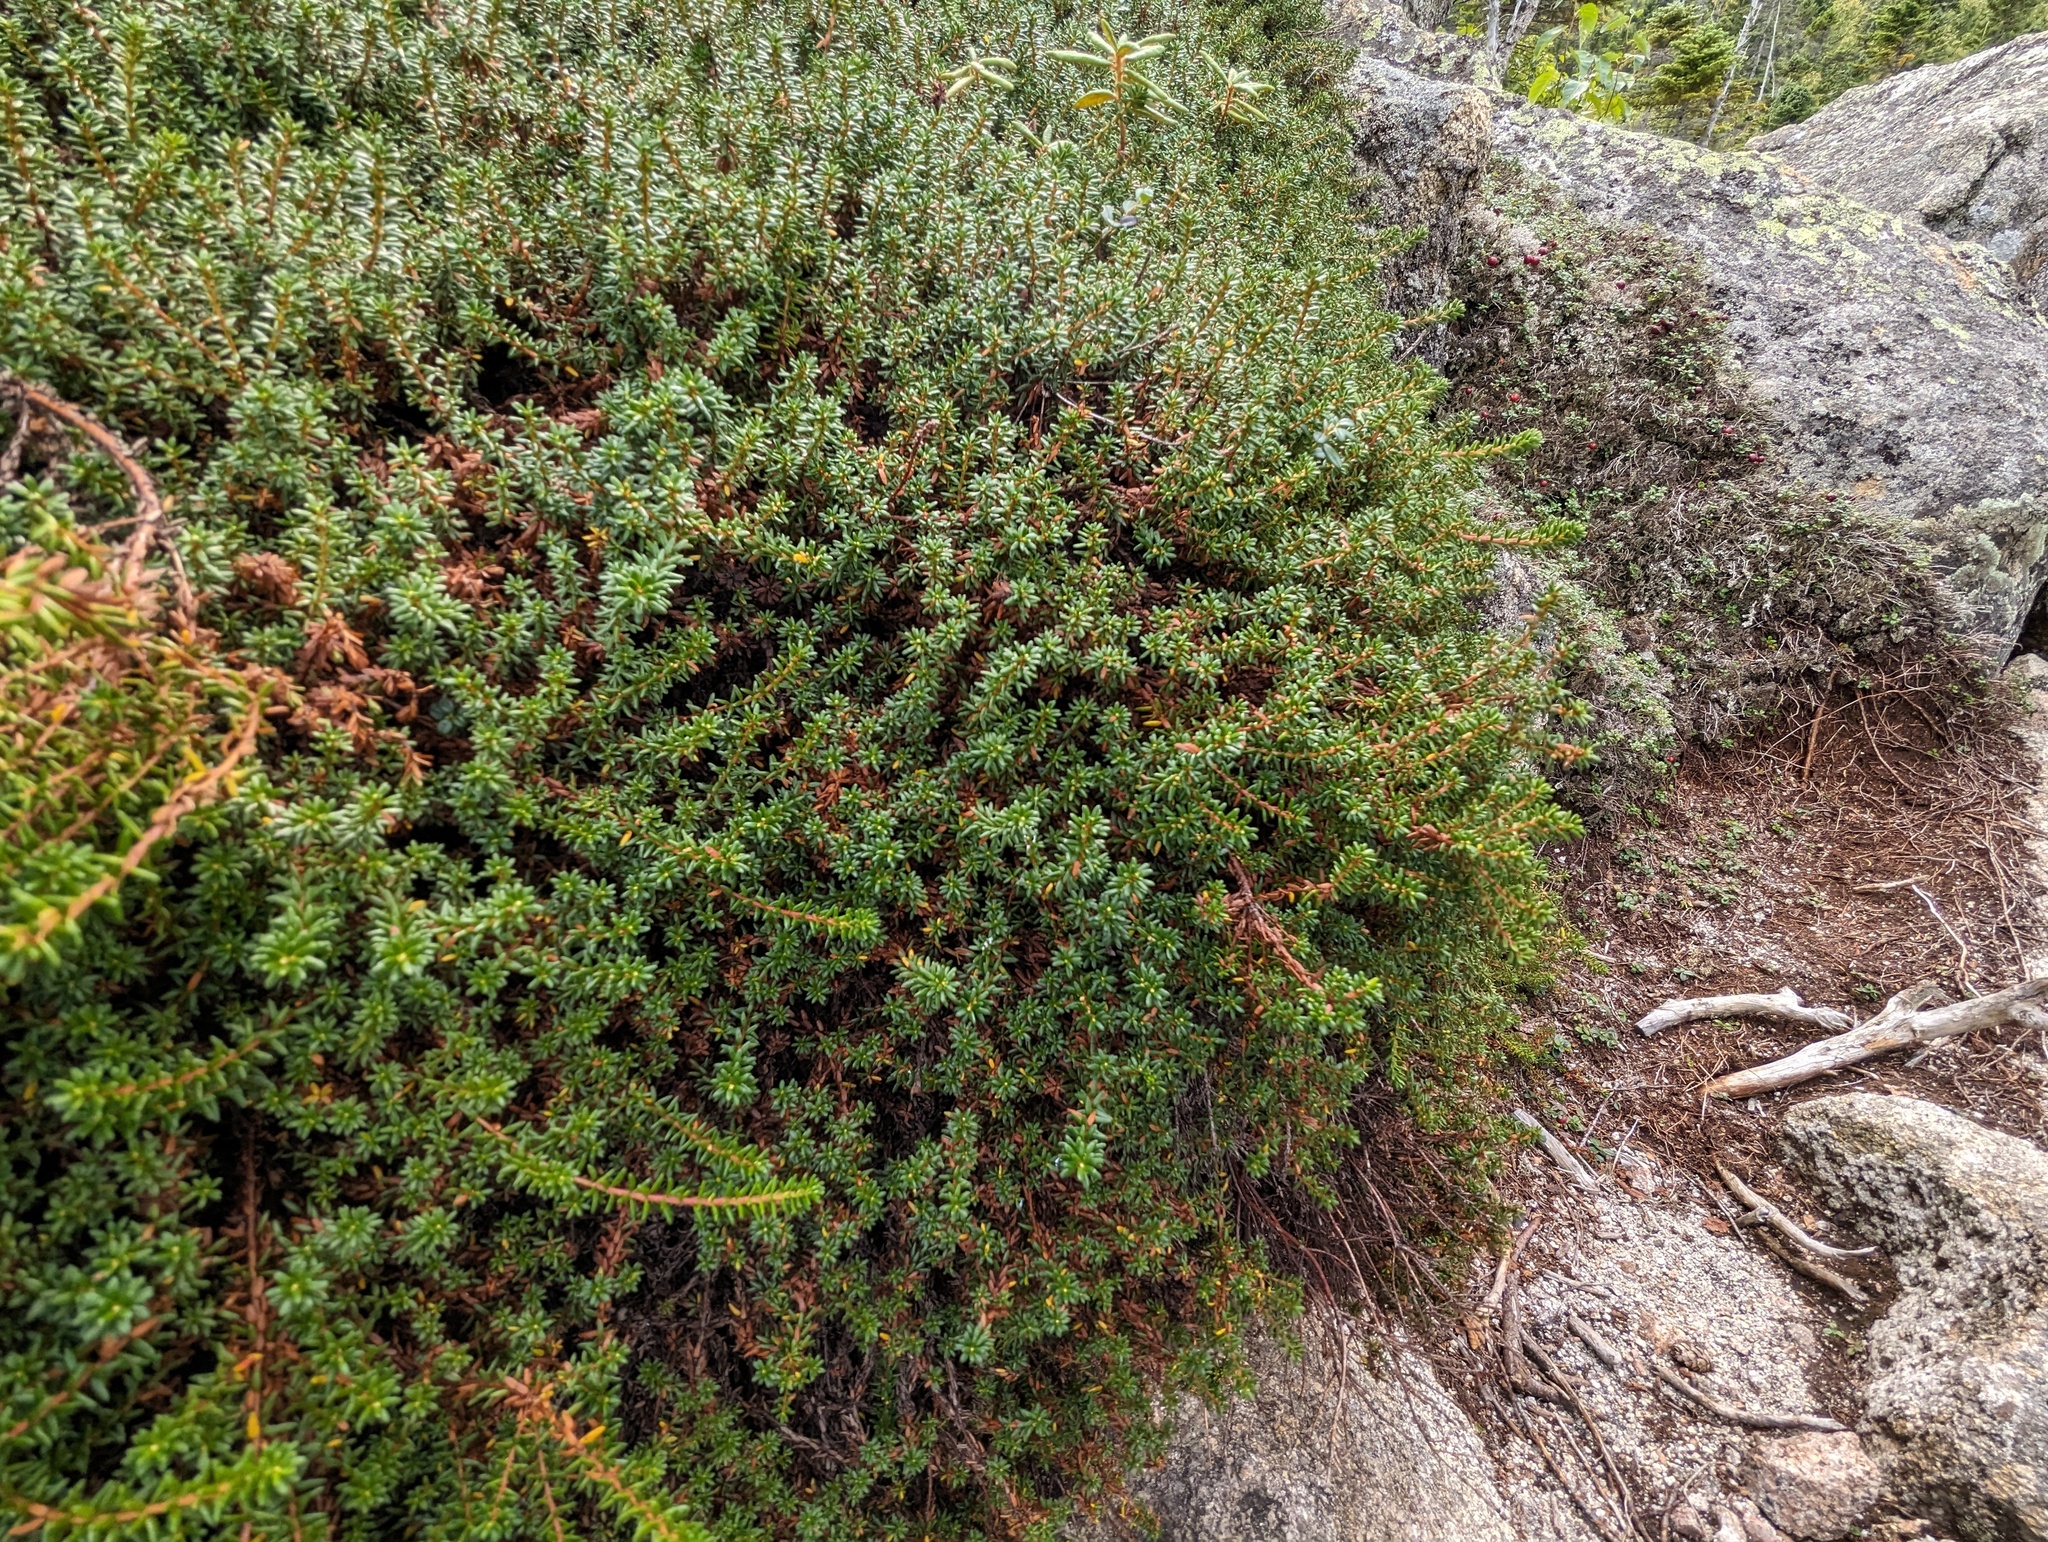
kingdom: Plantae
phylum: Tracheophyta
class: Magnoliopsida
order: Ericales
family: Ericaceae
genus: Empetrum
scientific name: Empetrum nigrum
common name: Black crowberry
